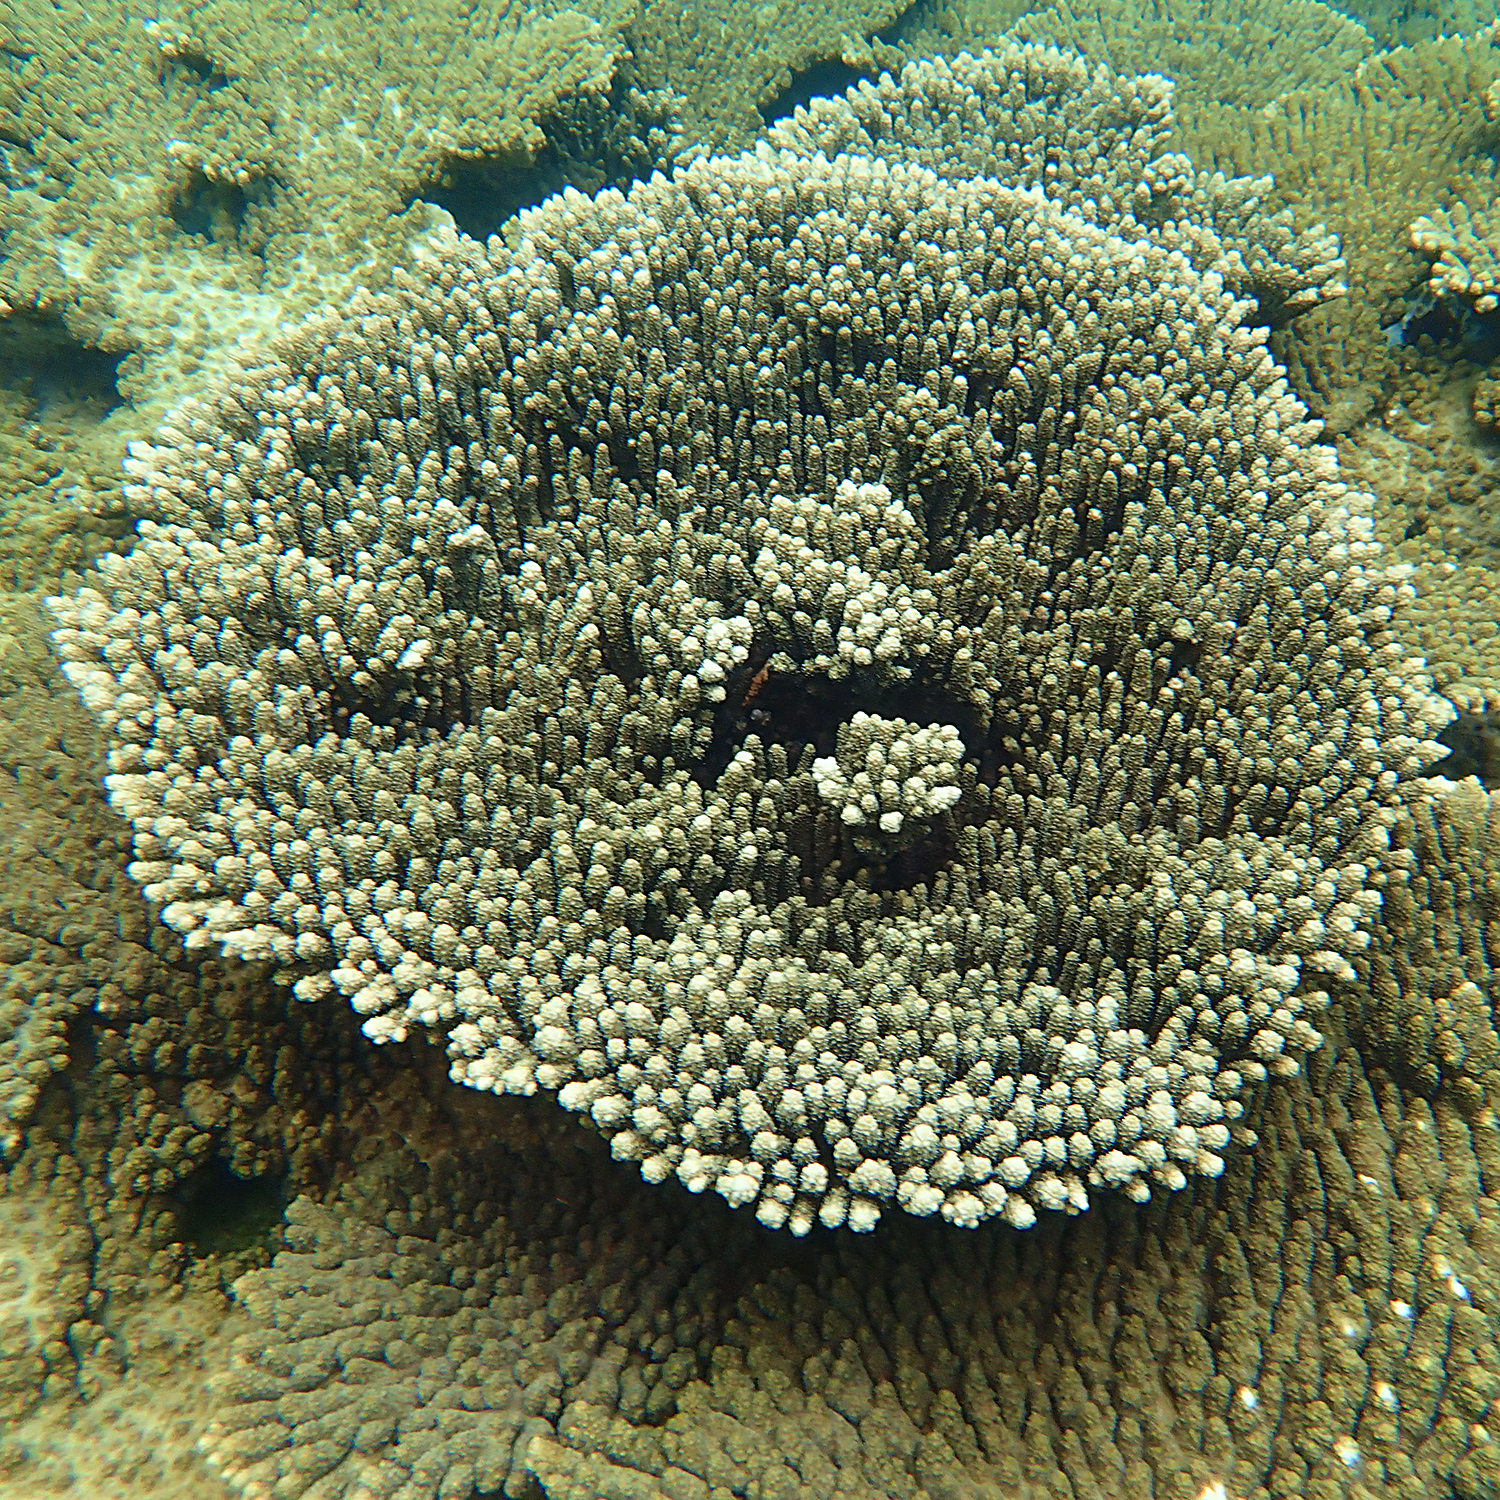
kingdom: Animalia
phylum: Cnidaria
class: Anthozoa
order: Scleractinia
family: Acroporidae
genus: Acropora
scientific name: Acropora solitaryensis
